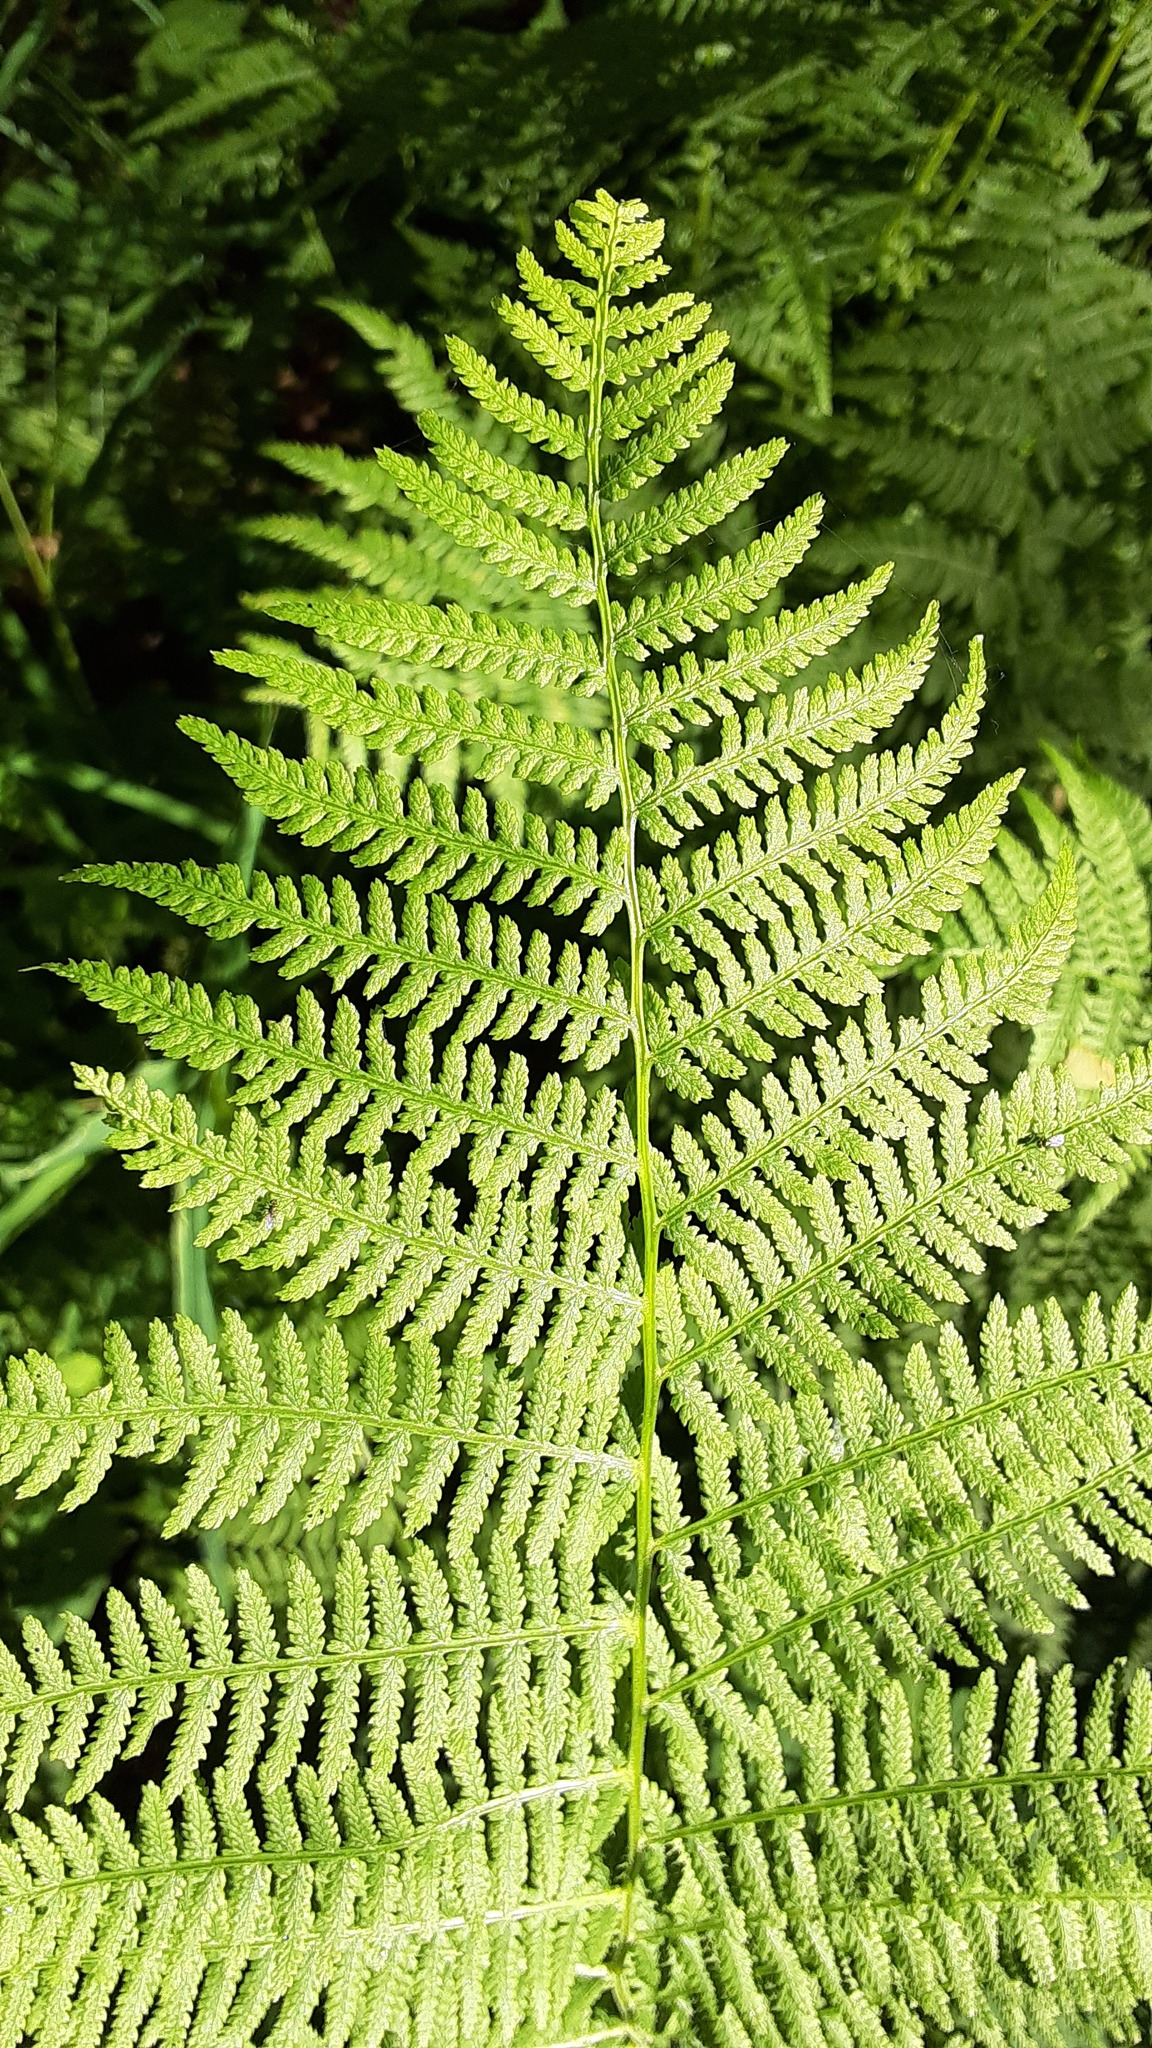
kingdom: Plantae
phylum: Tracheophyta
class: Polypodiopsida
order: Polypodiales
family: Athyriaceae
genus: Athyrium
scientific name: Athyrium angustum
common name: Northern lady fern
